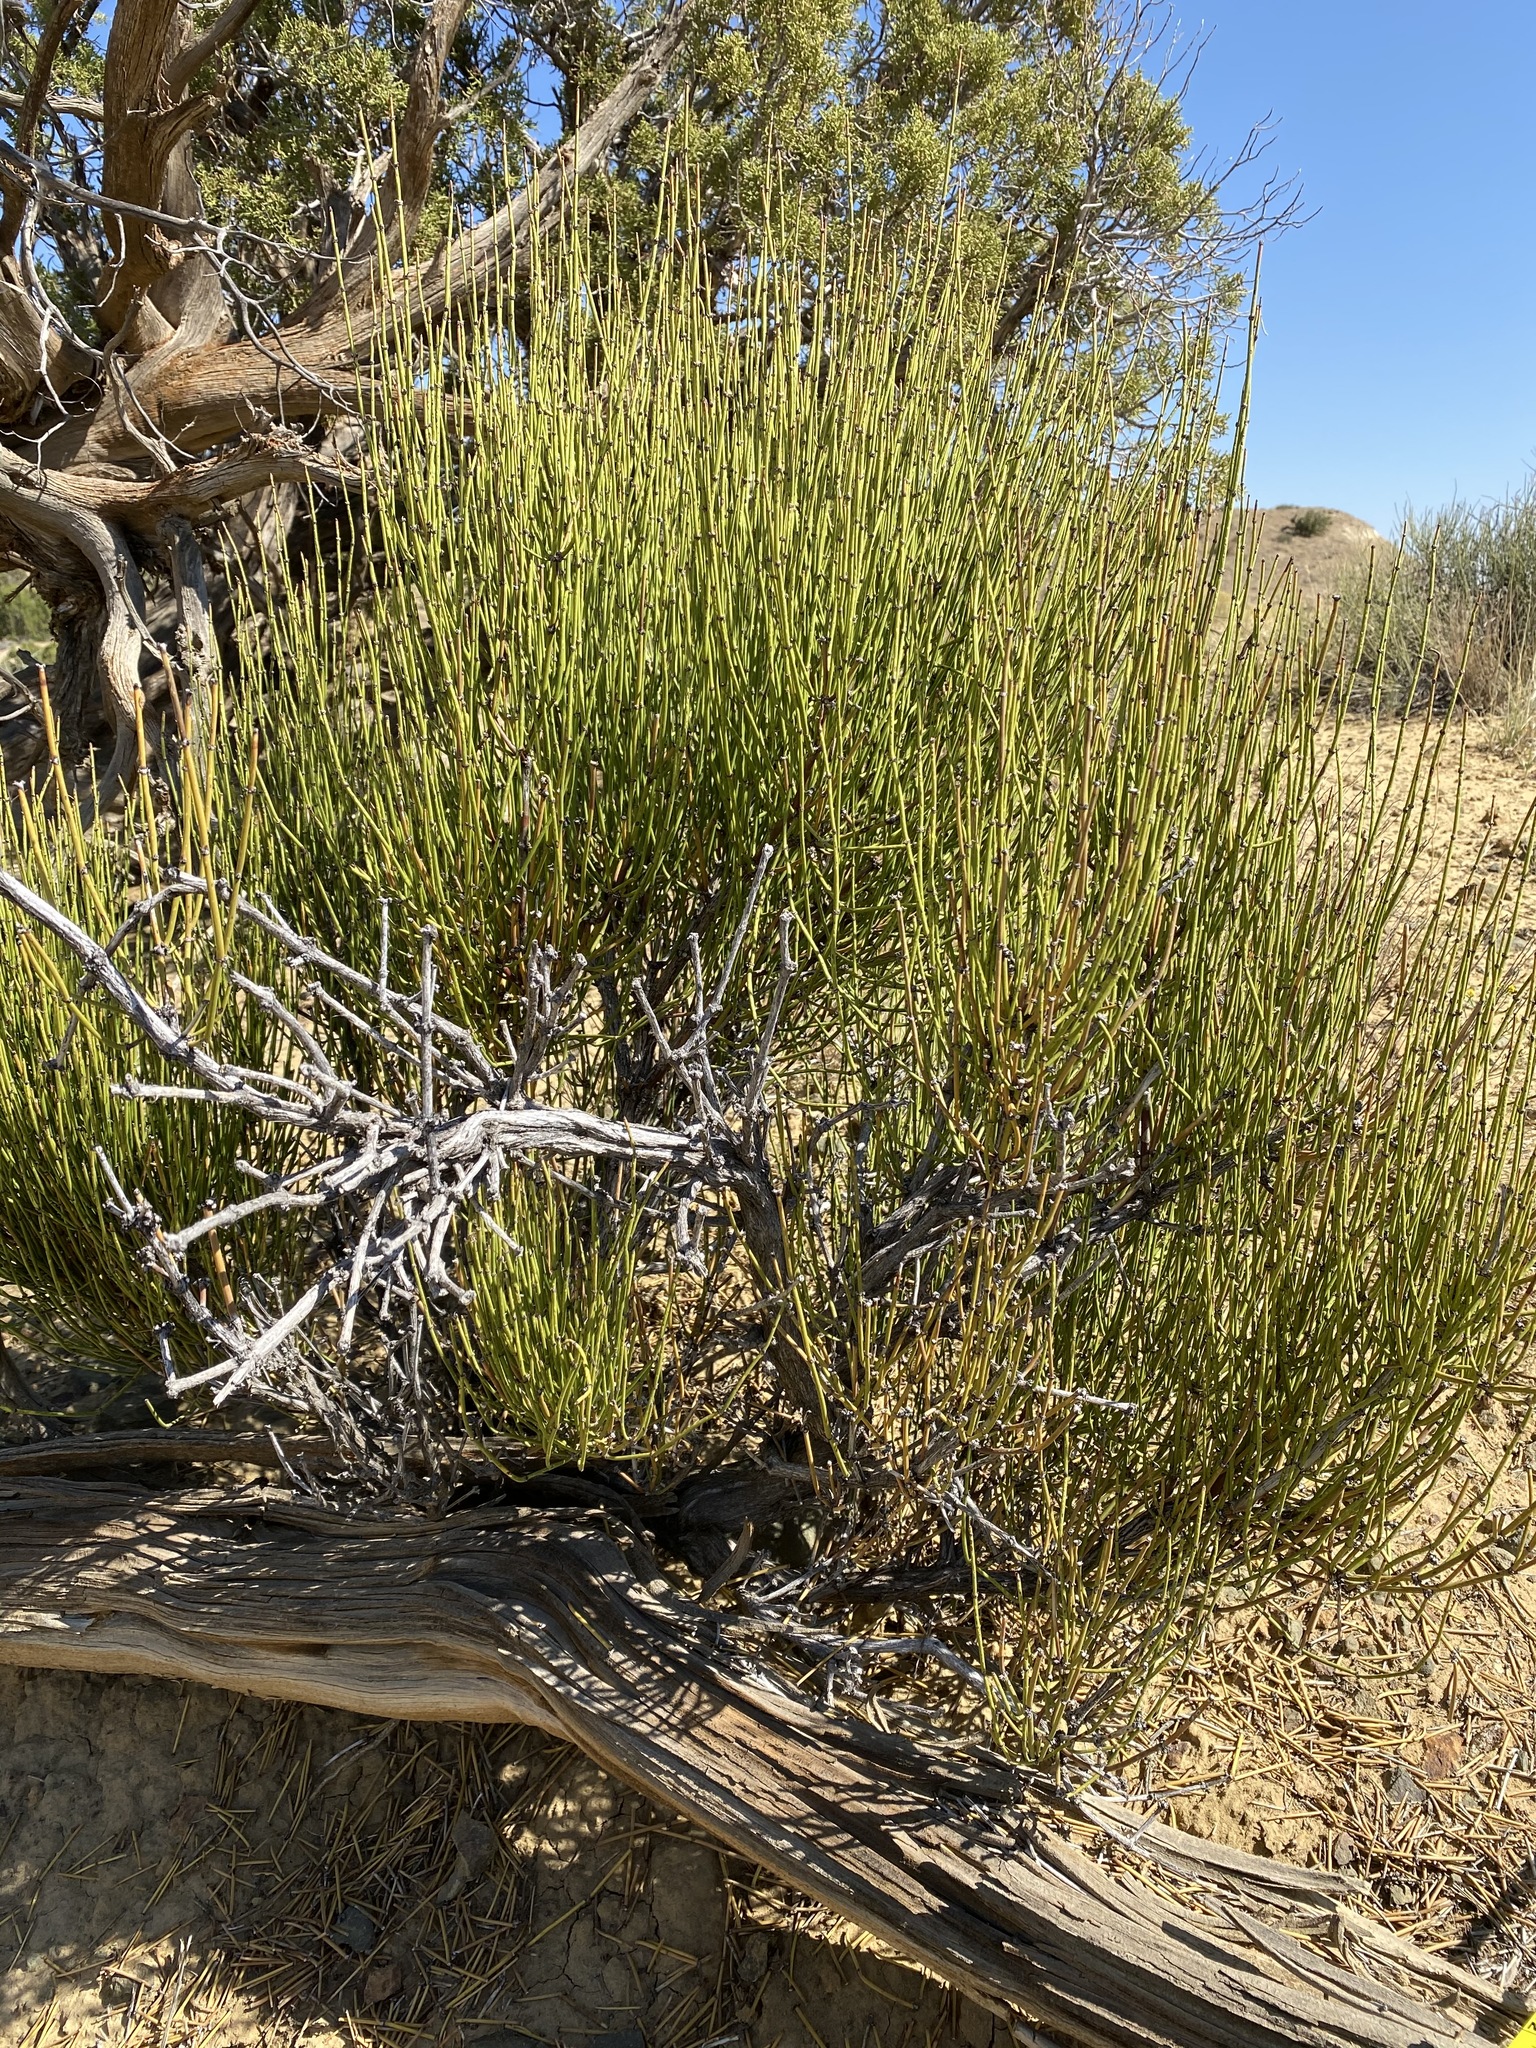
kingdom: Plantae
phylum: Tracheophyta
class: Gnetopsida
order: Ephedrales
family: Ephedraceae
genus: Ephedra
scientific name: Ephedra viridis
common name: Green ephedra
